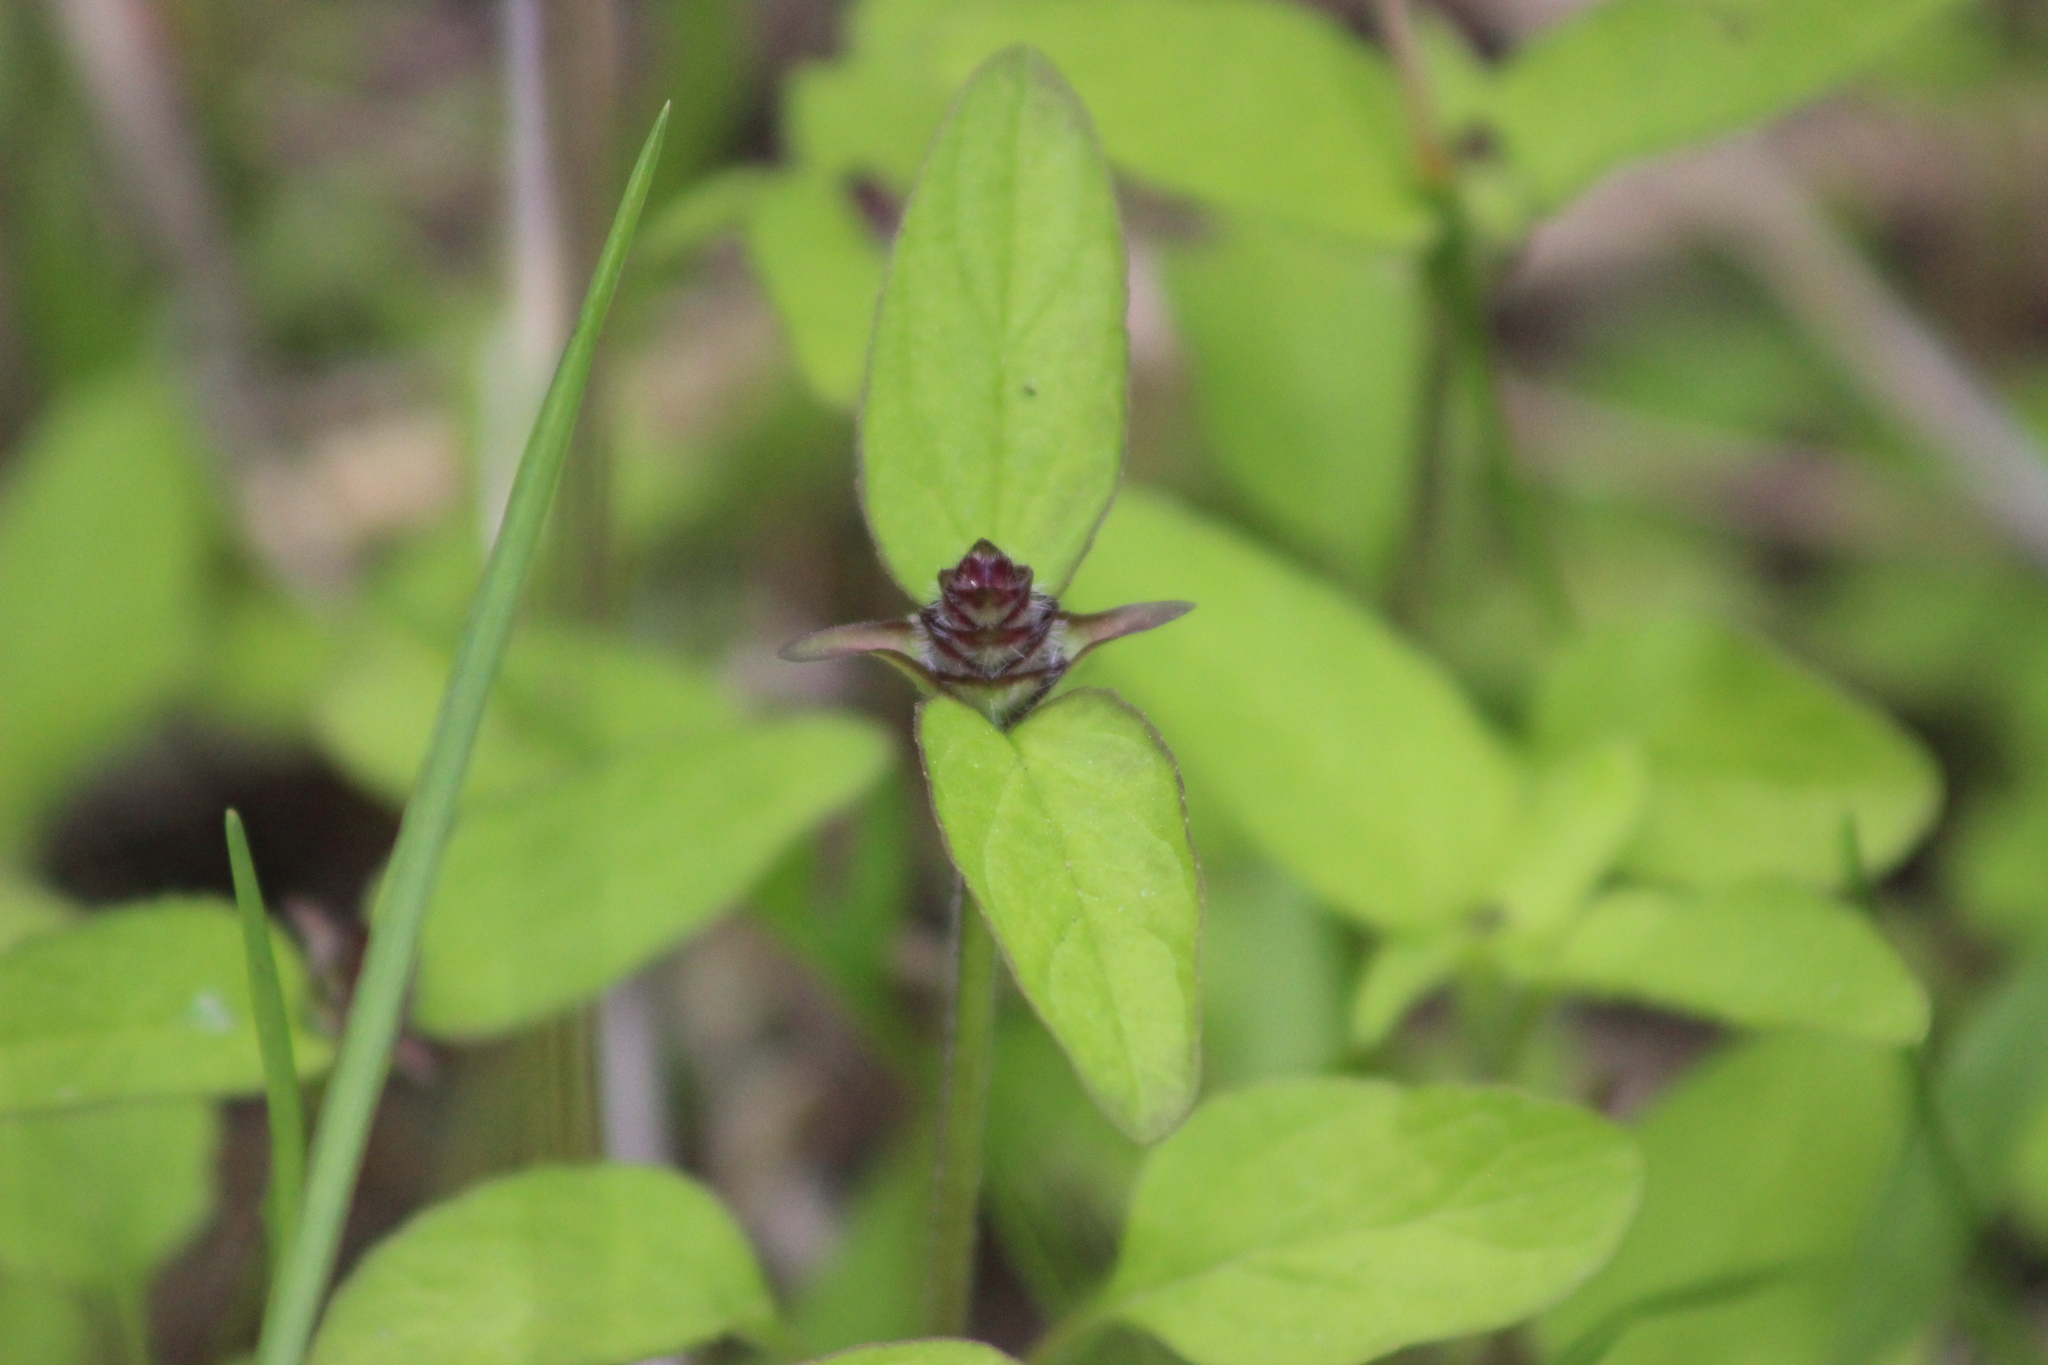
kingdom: Plantae
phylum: Tracheophyta
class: Magnoliopsida
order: Lamiales
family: Lamiaceae
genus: Prunella
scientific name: Prunella vulgaris
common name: Heal-all
